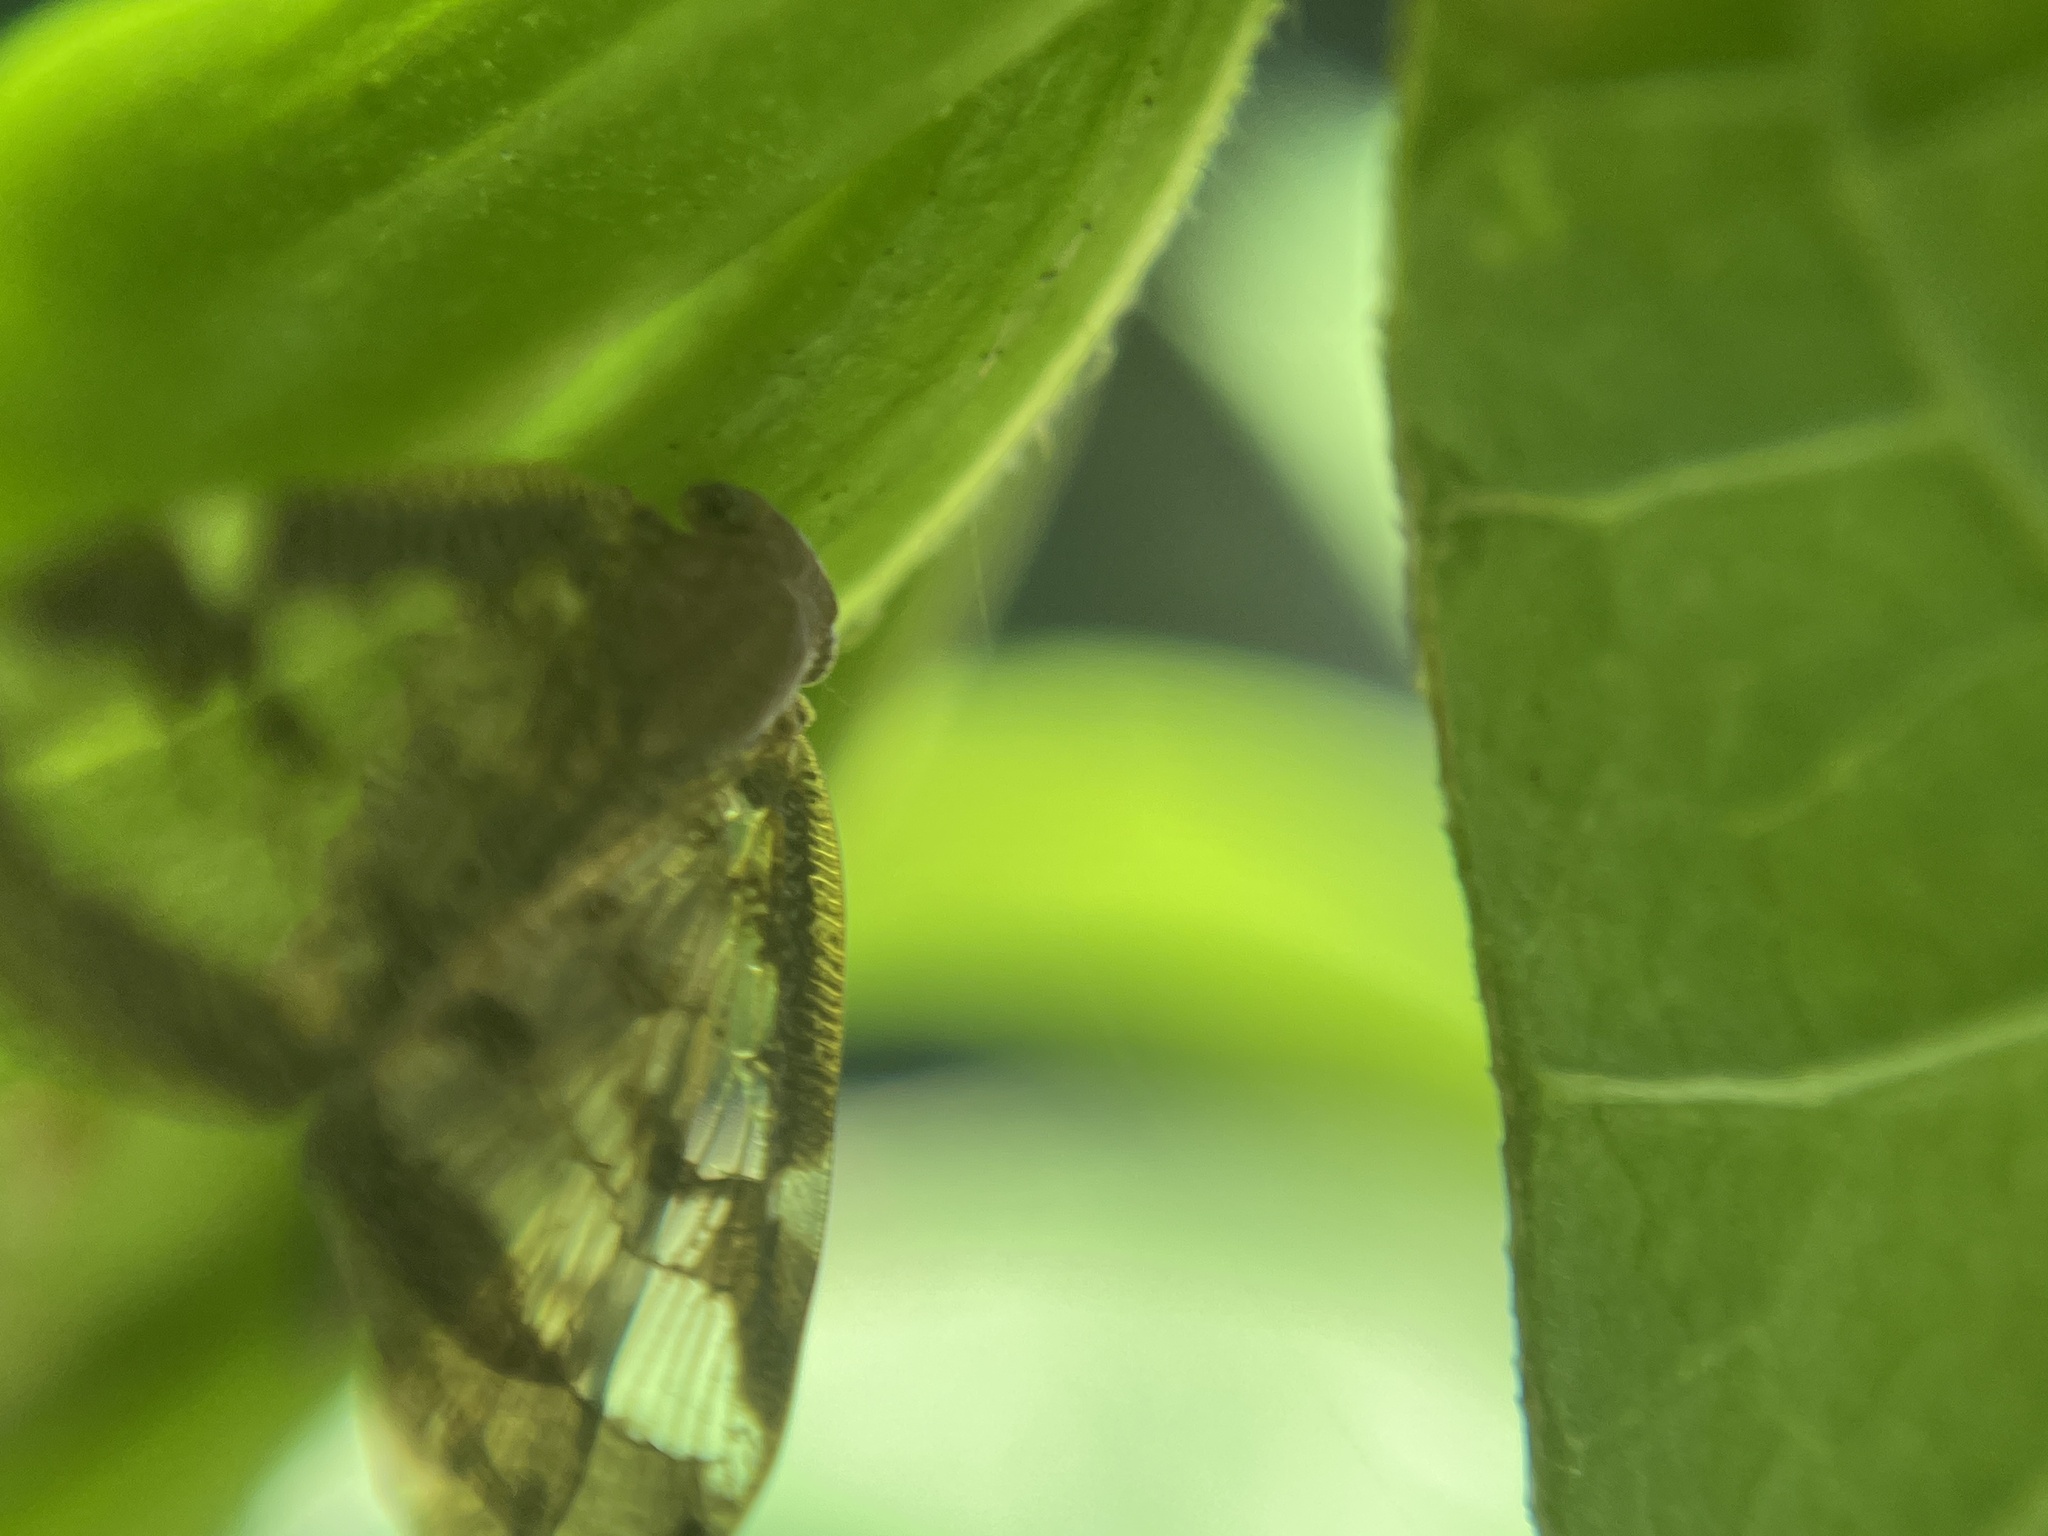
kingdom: Animalia
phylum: Arthropoda
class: Insecta
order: Hemiptera
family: Ricaniidae
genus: Scolypopa
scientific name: Scolypopa australis
